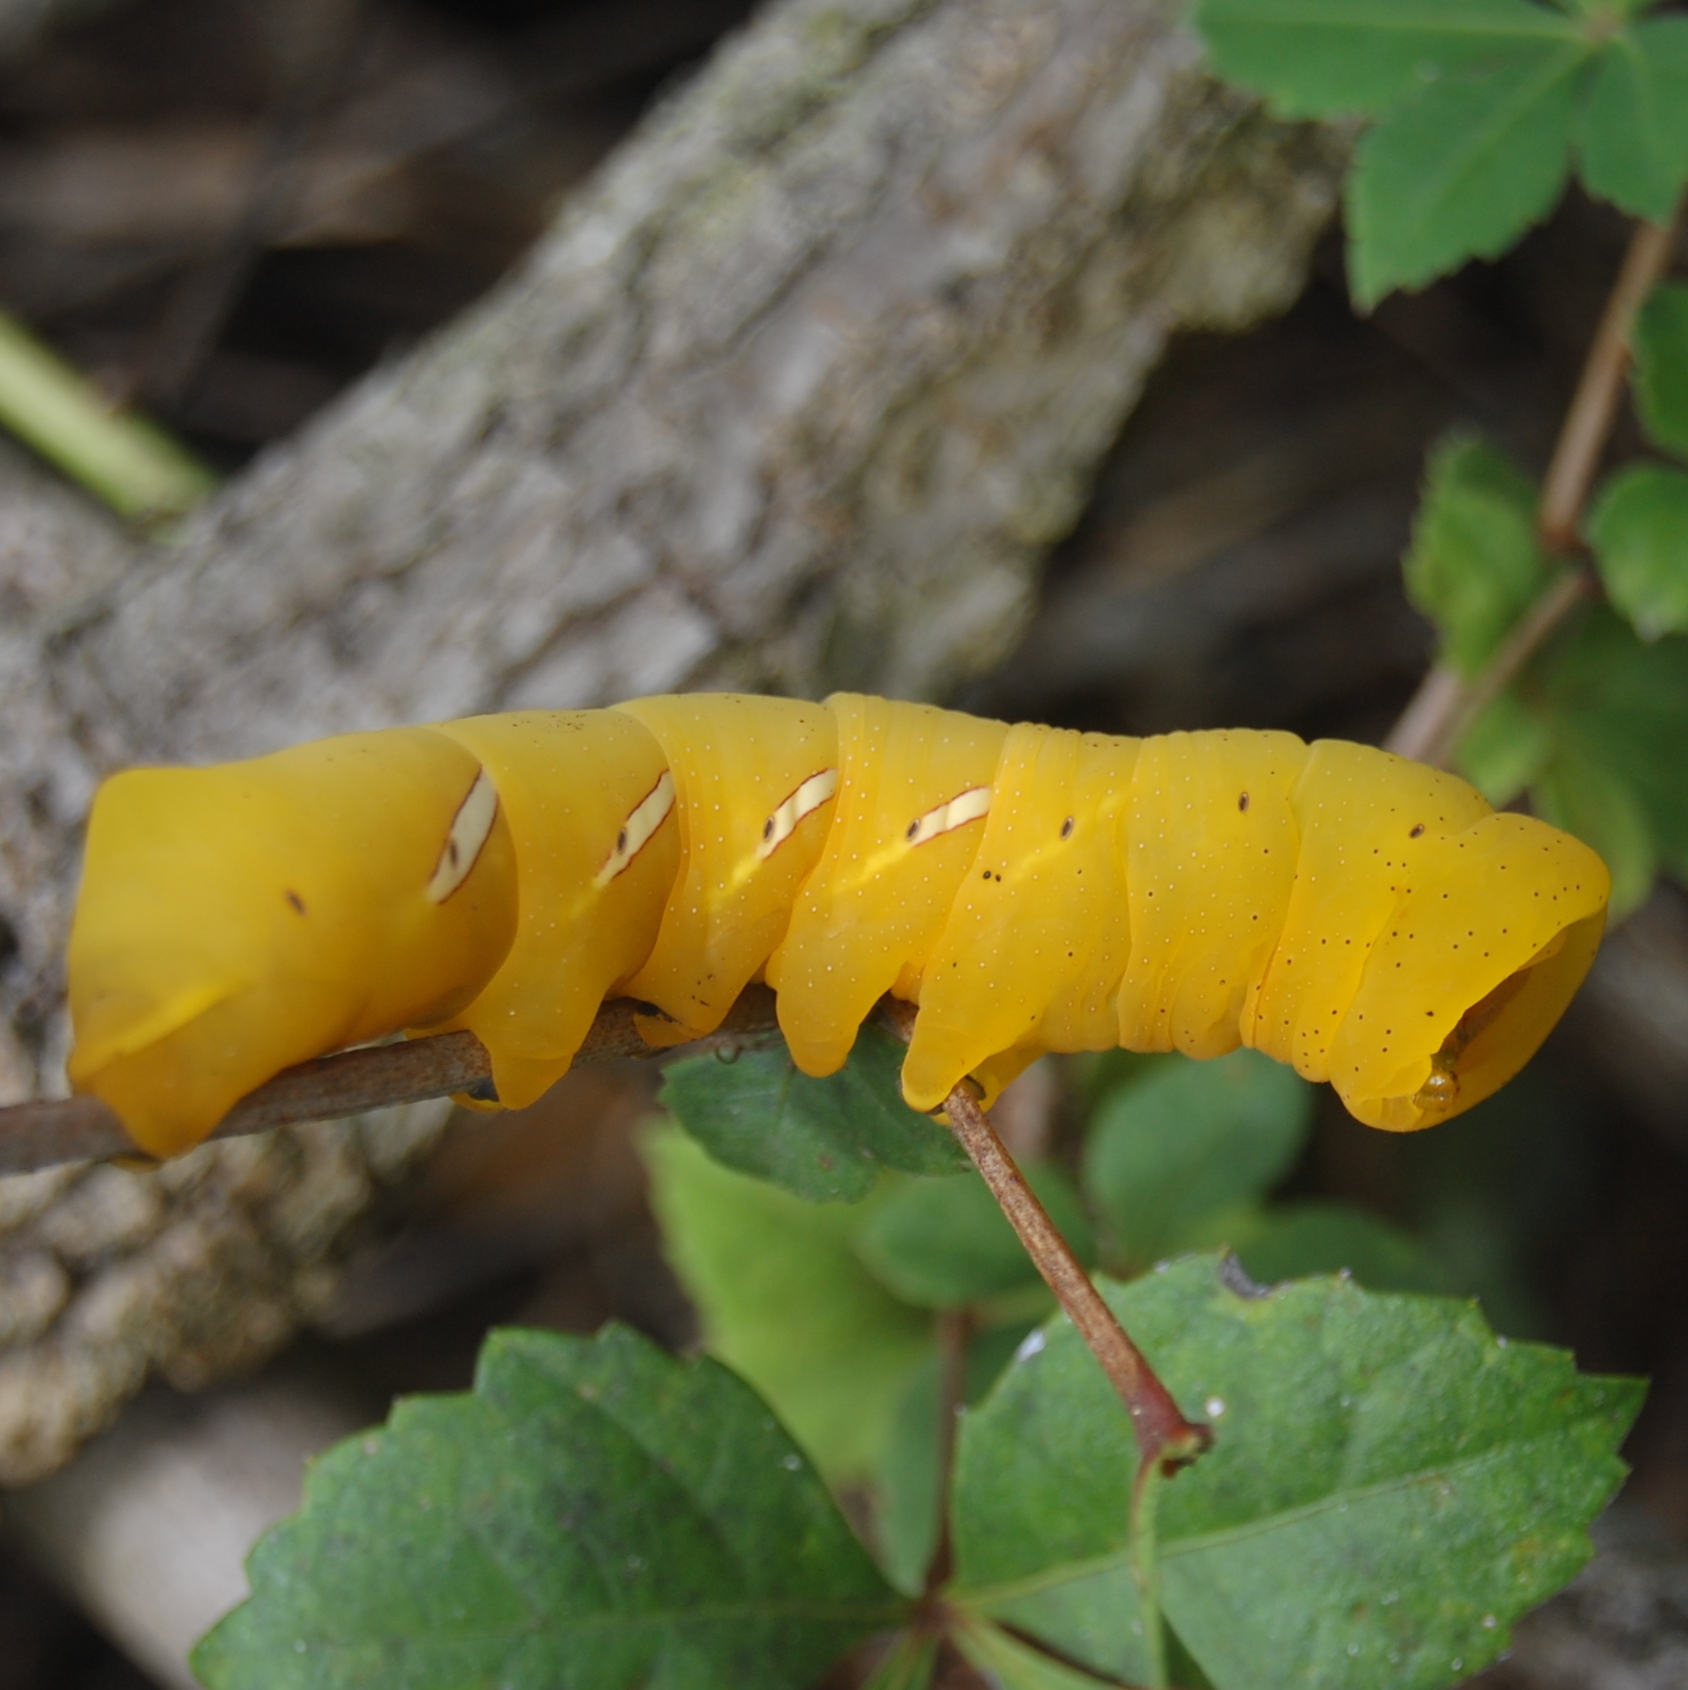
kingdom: Animalia
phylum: Arthropoda
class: Insecta
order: Lepidoptera
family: Sphingidae
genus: Eumorpha
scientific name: Eumorpha vitis
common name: Vine sphinx
